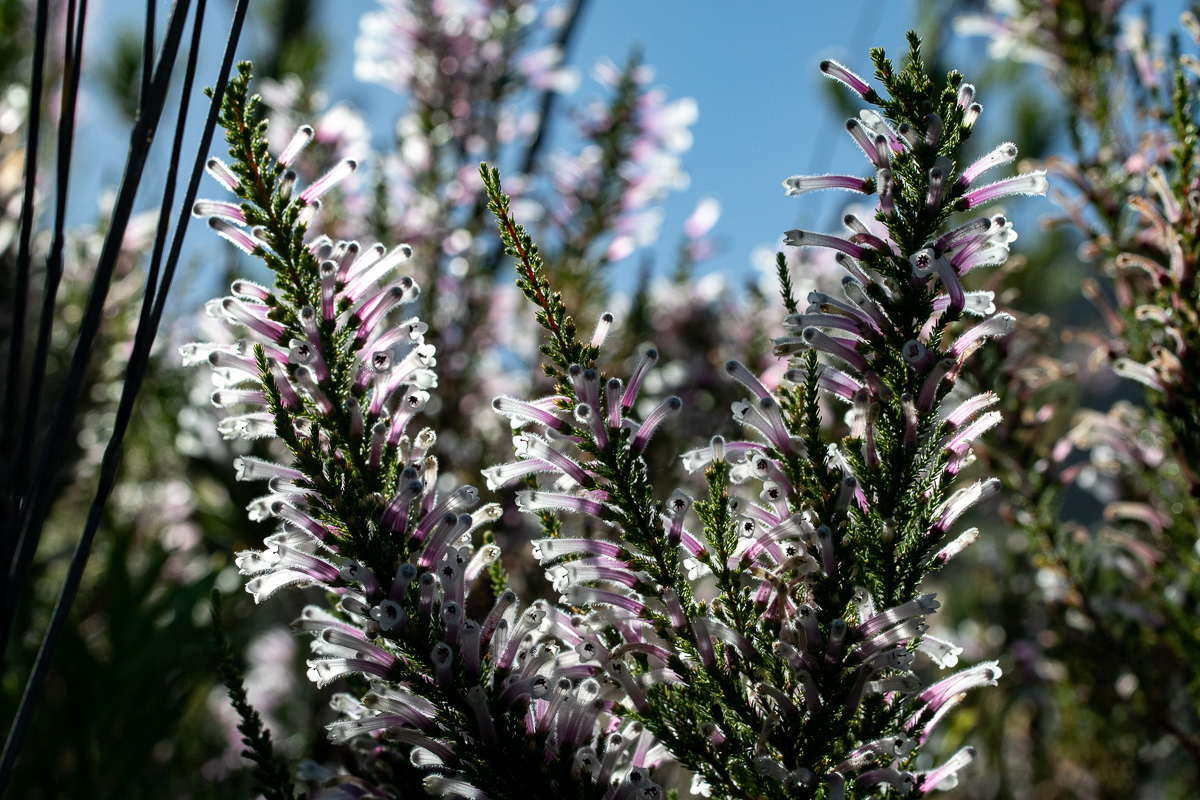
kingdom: Plantae
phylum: Tracheophyta
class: Magnoliopsida
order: Ericales
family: Ericaceae
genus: Erica
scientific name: Erica perspicua
